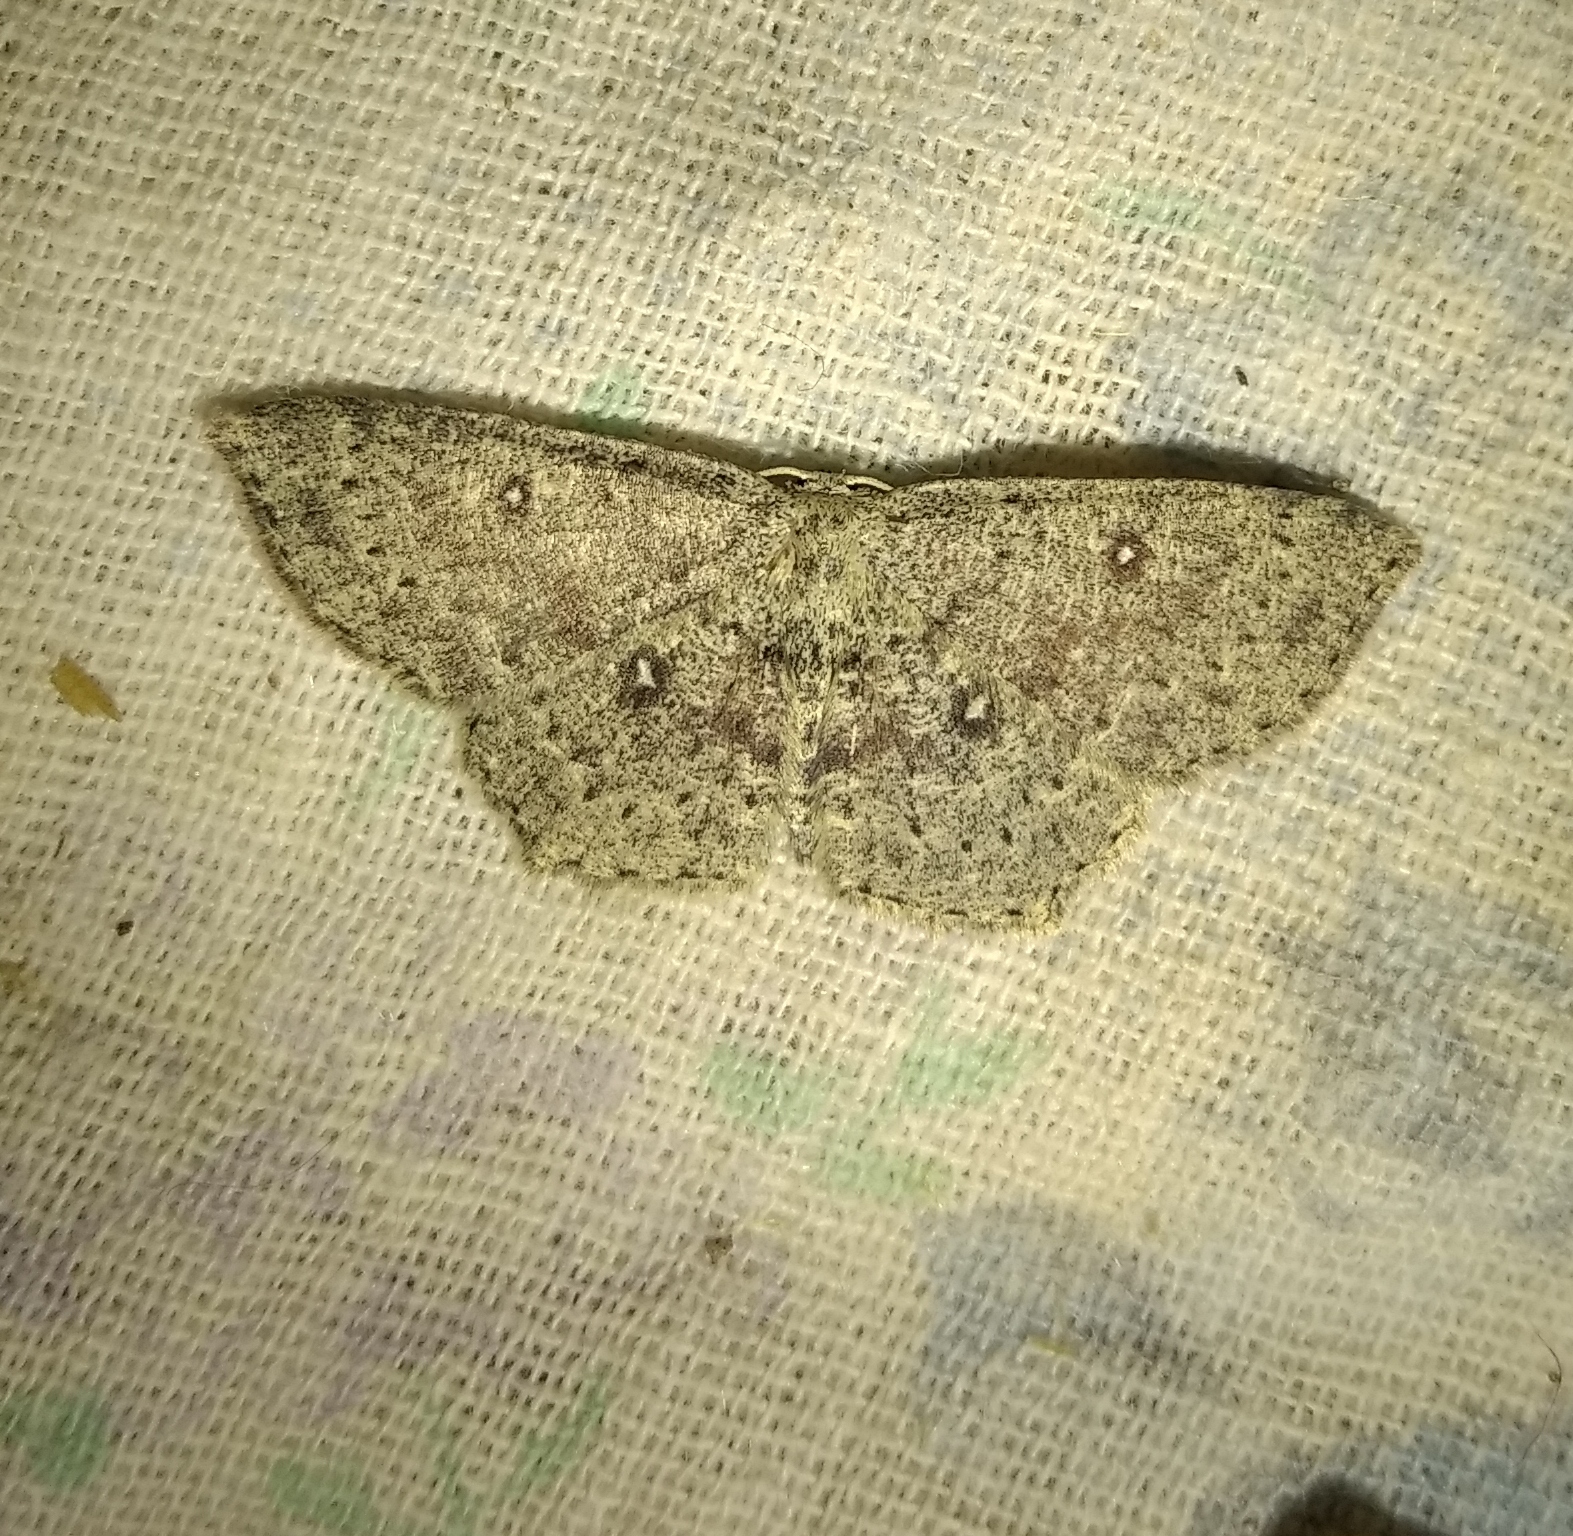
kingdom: Animalia
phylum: Arthropoda
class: Insecta
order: Lepidoptera
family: Geometridae
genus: Cyclophora
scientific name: Cyclophora pendularia
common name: Dingy mocha
